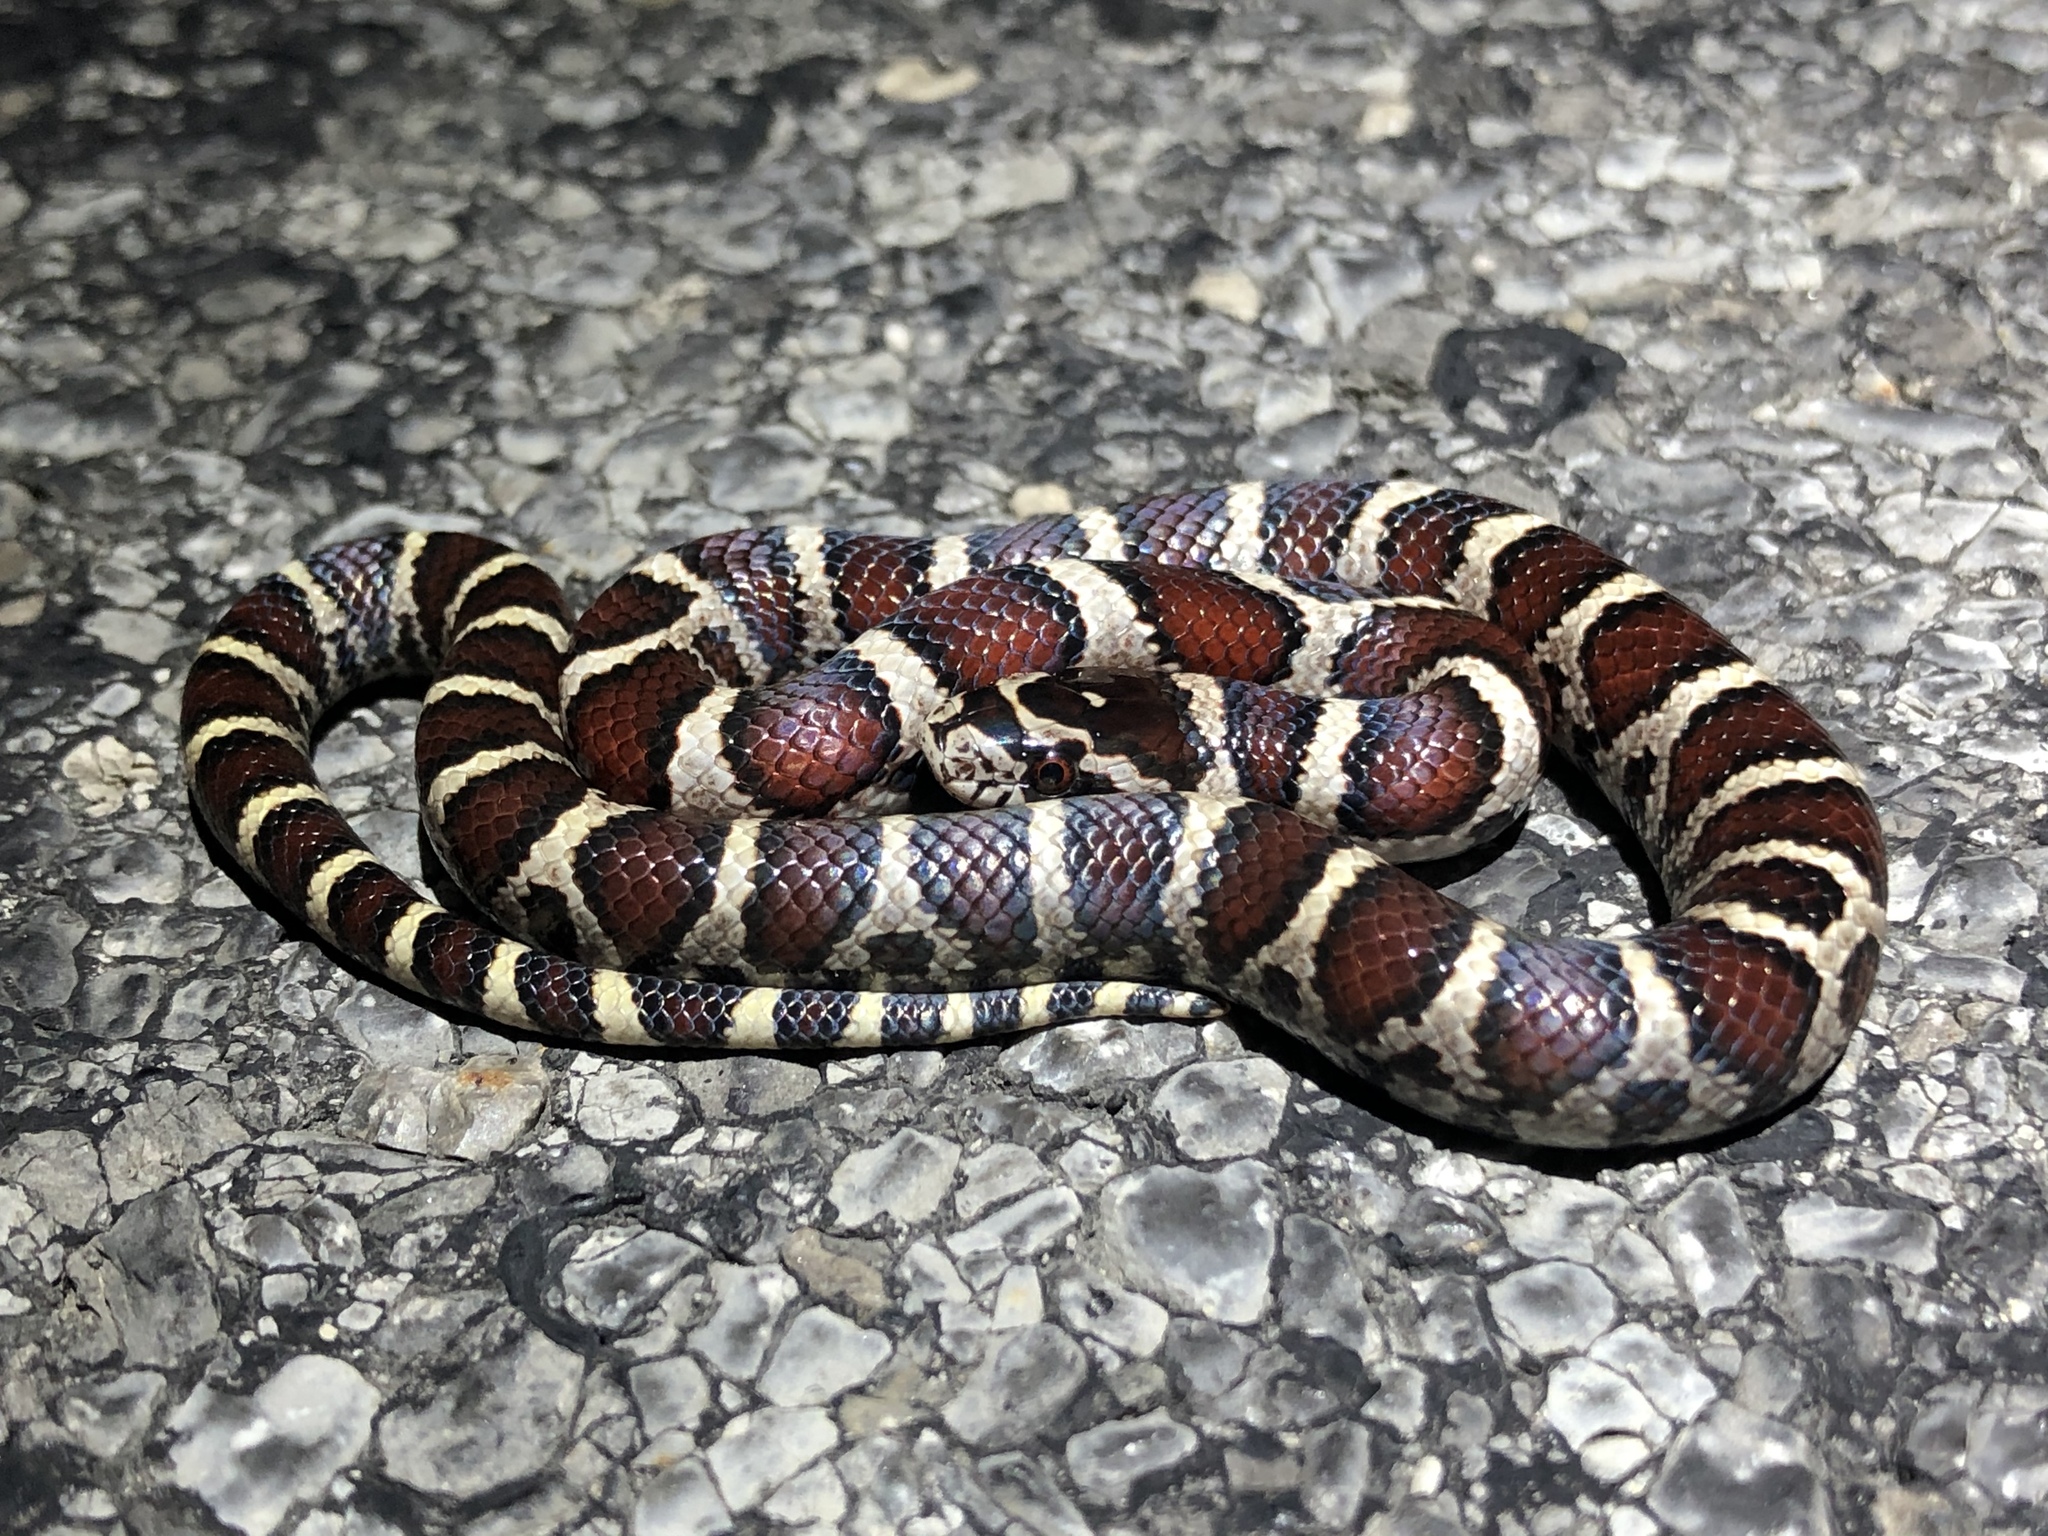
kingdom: Animalia
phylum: Chordata
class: Squamata
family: Colubridae
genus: Lampropeltis
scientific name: Lampropeltis triangulum
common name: Eastern milksnake
